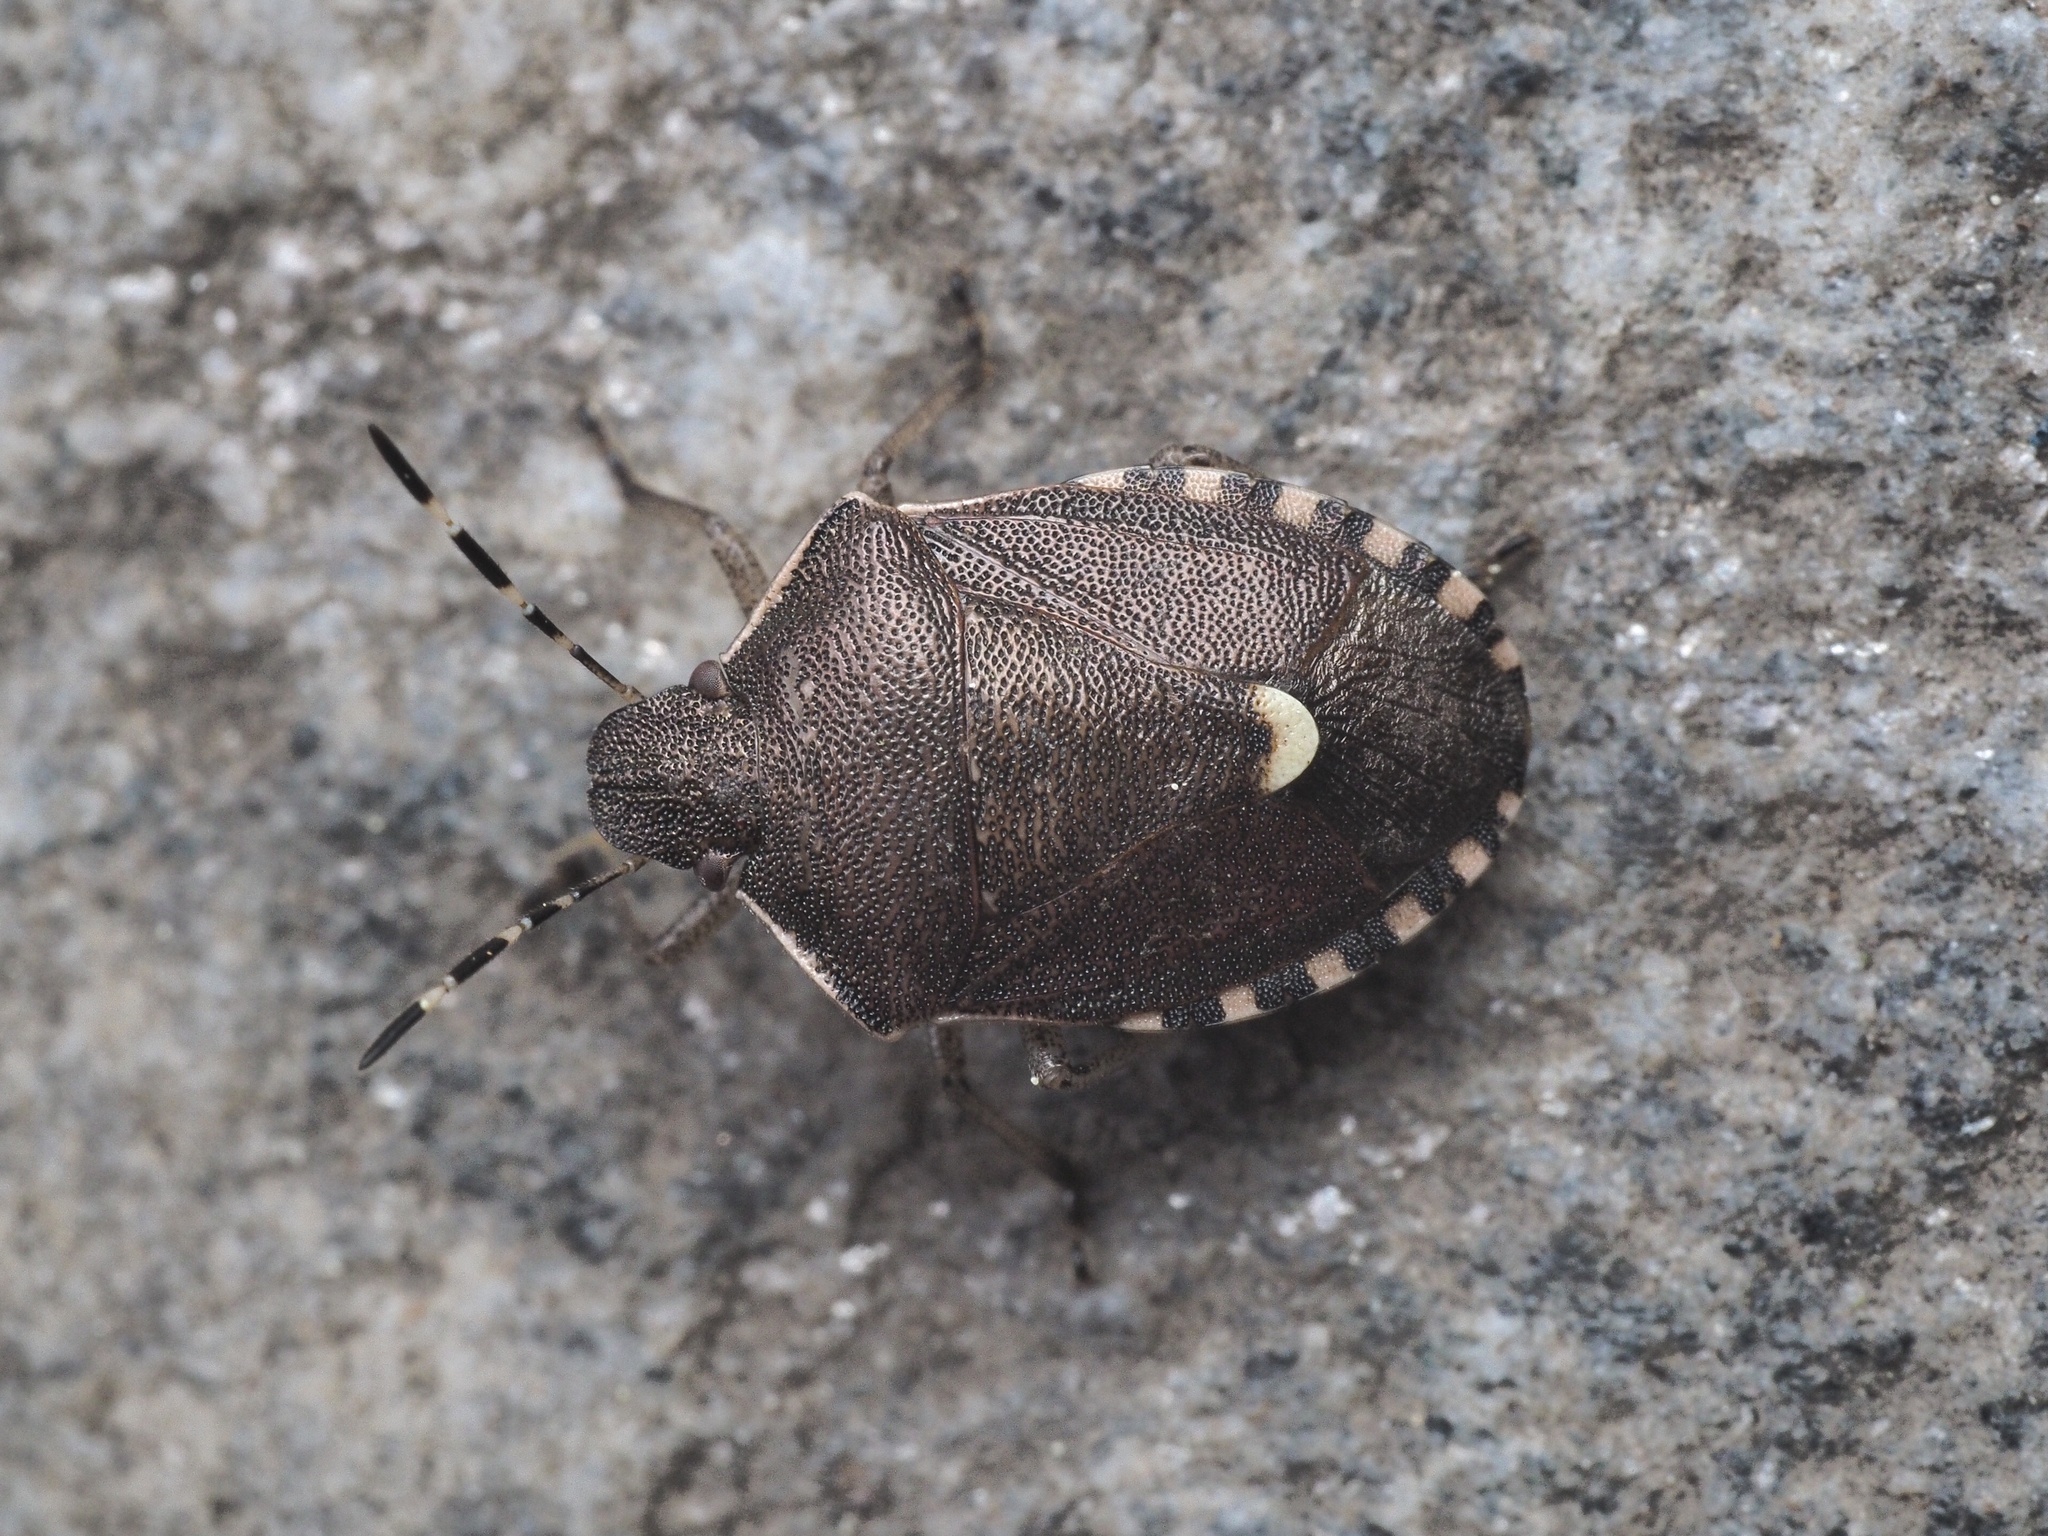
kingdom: Animalia
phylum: Arthropoda
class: Insecta
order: Hemiptera
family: Pentatomidae
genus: Holcostethus
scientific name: Holcostethus sphacelatus
